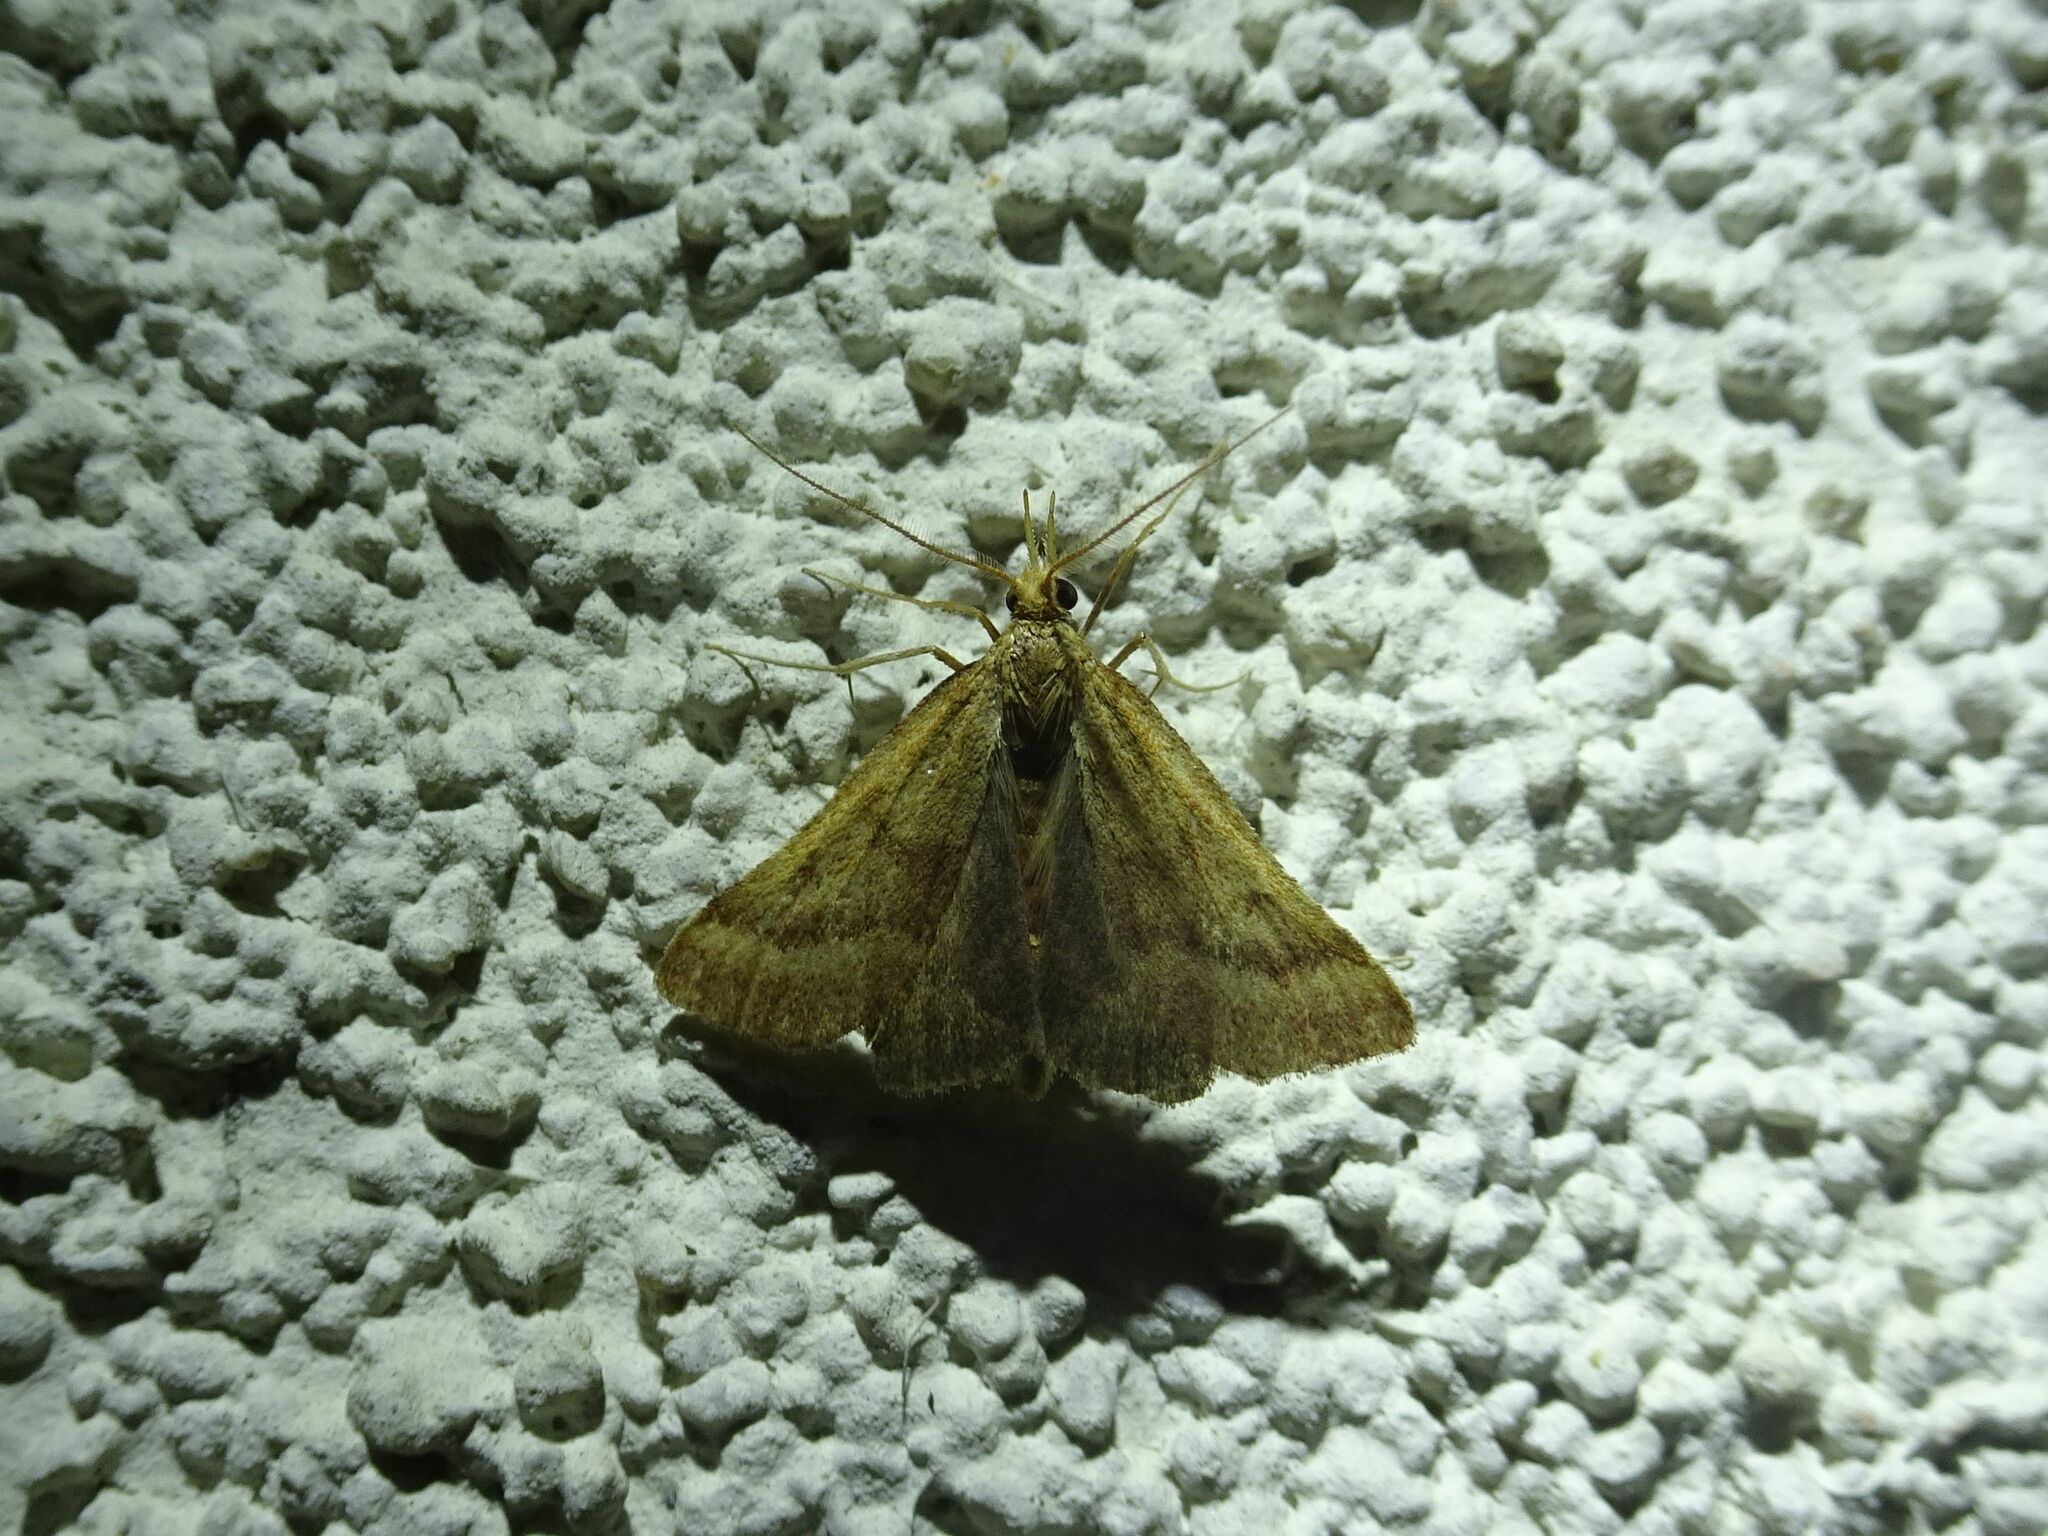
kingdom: Animalia
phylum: Arthropoda
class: Insecta
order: Lepidoptera
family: Pyralidae
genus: Synaphe
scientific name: Synaphe punctalis
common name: Long-legged tabby
